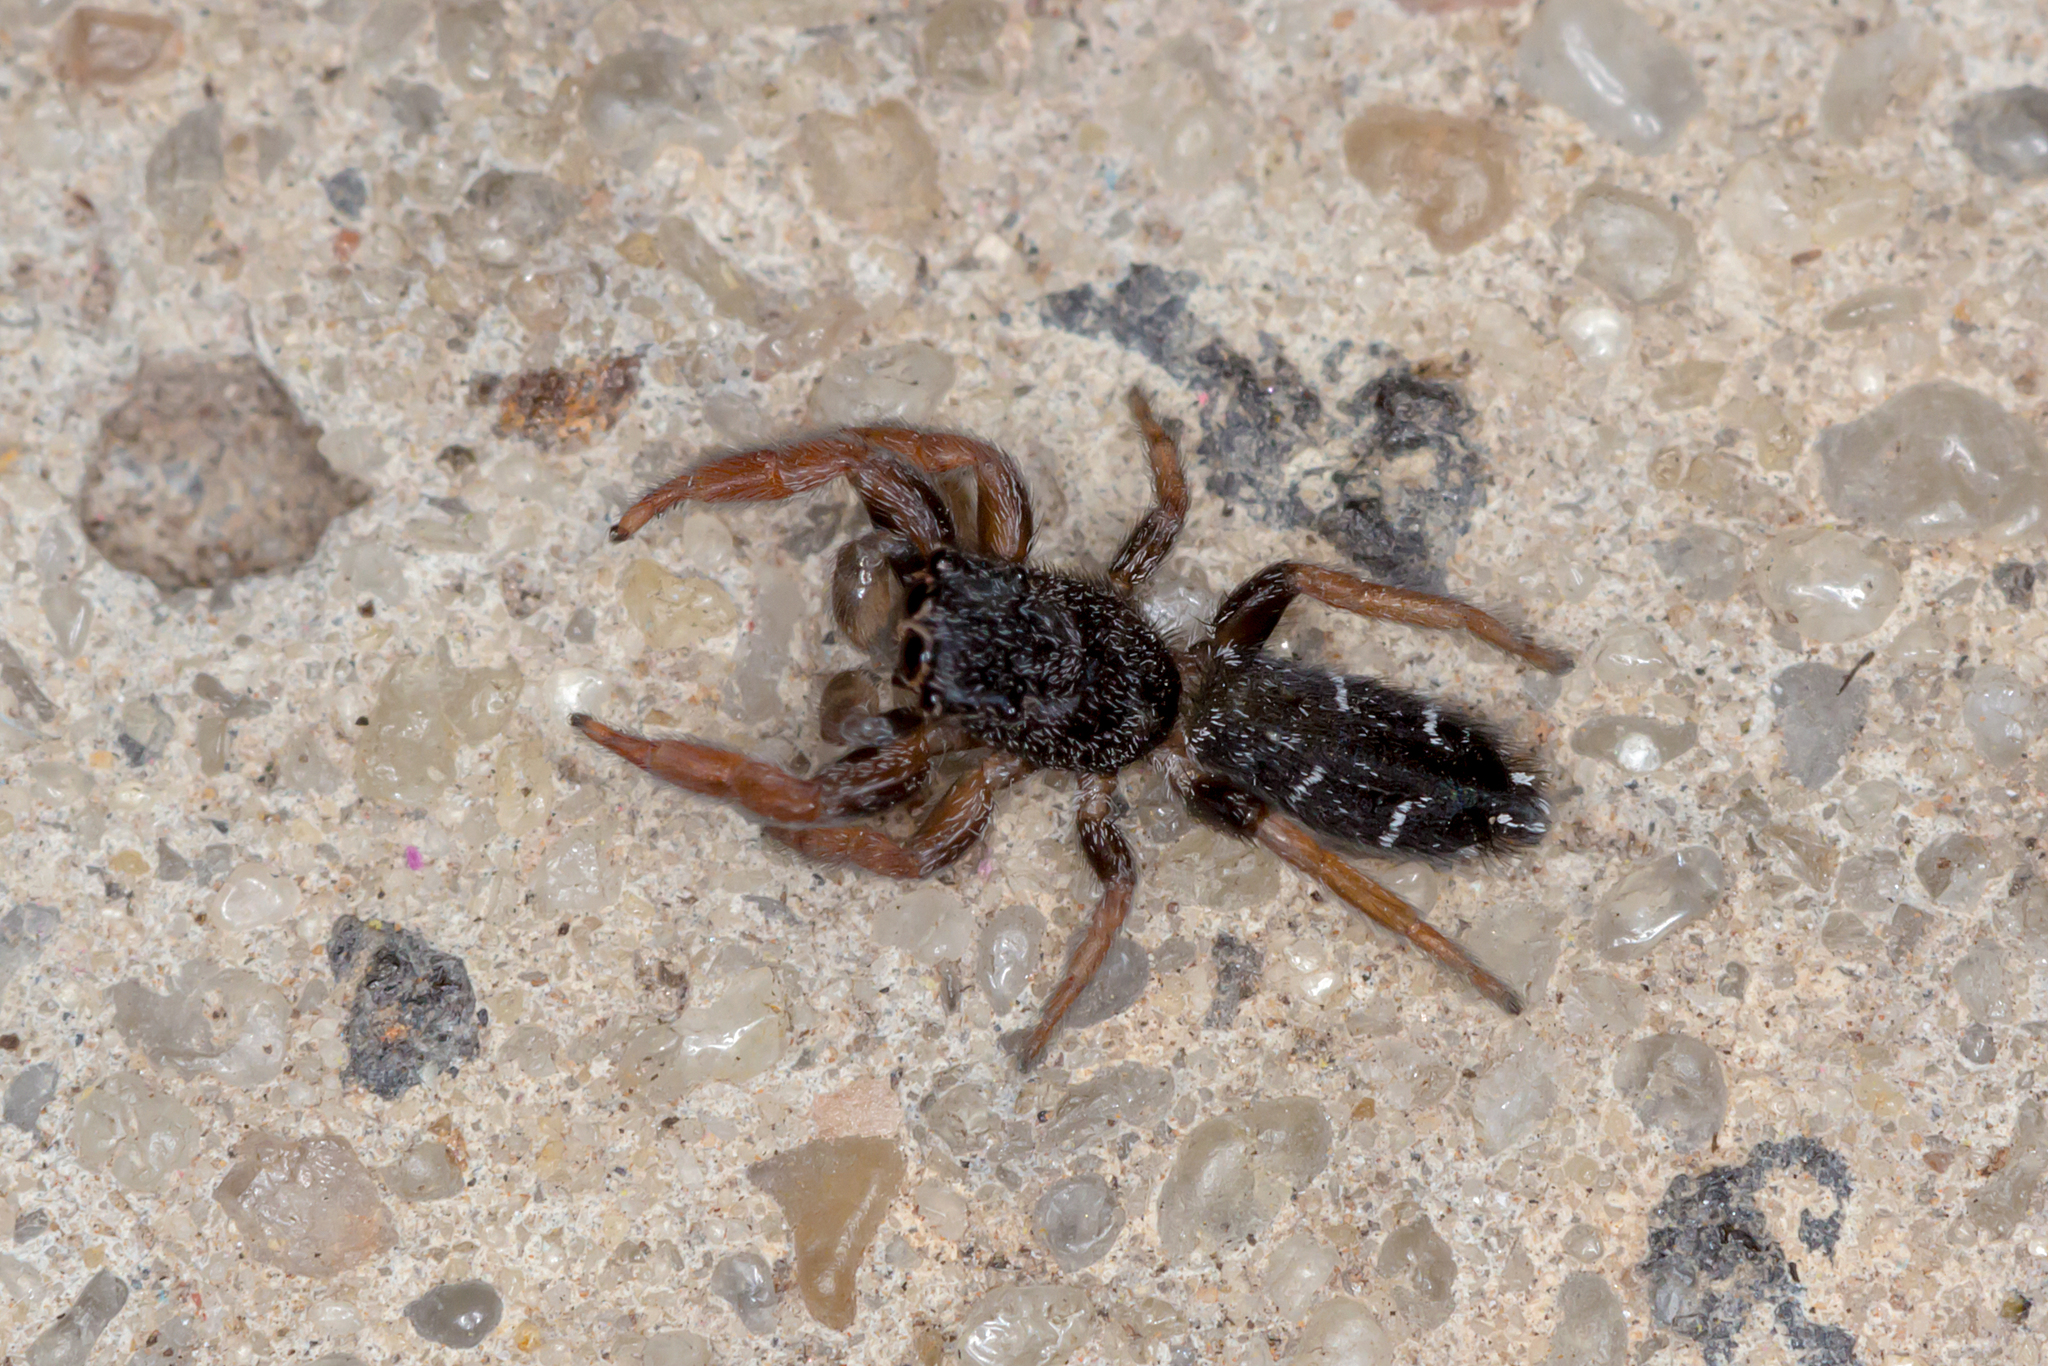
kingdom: Animalia
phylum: Arthropoda
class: Arachnida
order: Araneae
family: Salticidae
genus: Holoplatys
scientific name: Holoplatys invenusta
